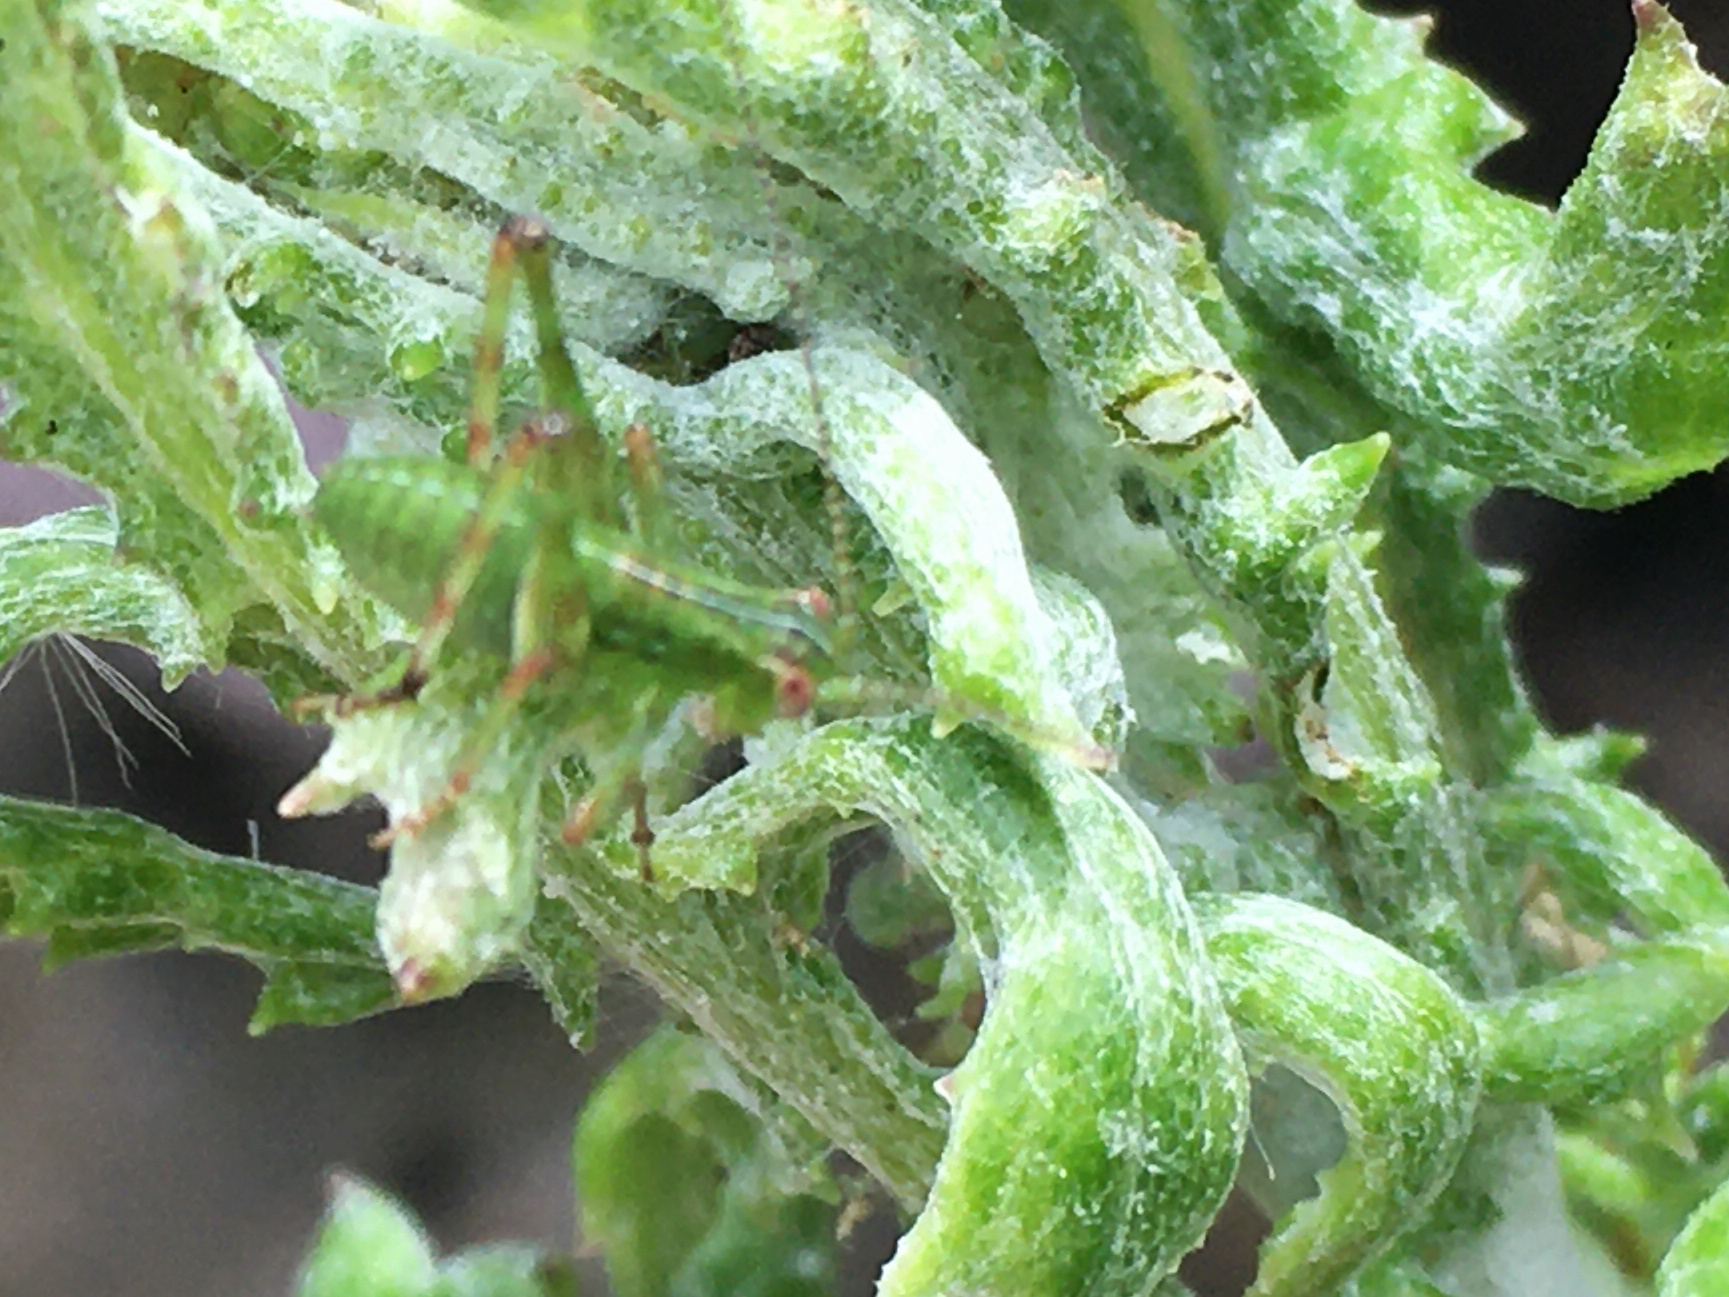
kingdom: Animalia
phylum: Arthropoda
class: Insecta
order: Orthoptera
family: Tettigoniidae
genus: Caedicia
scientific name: Caedicia simplex
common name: Common garden katydid
